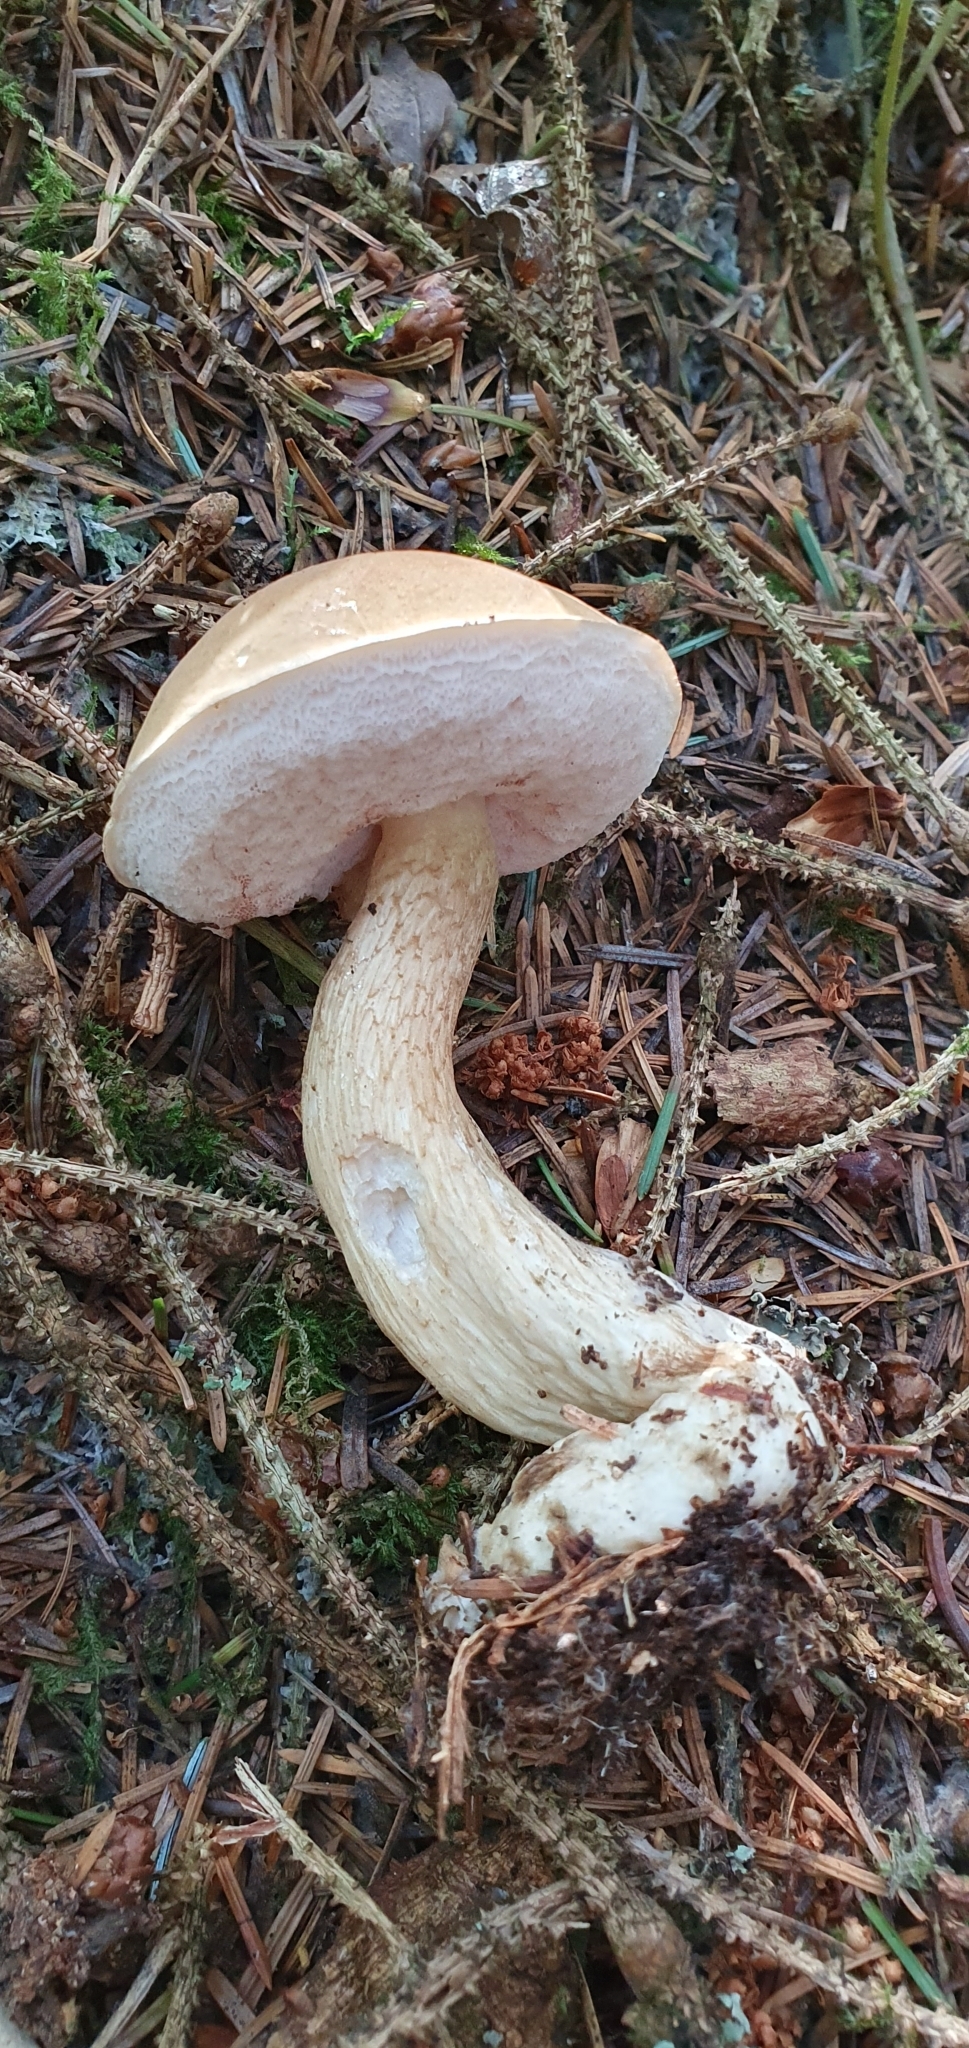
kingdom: Fungi
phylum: Basidiomycota
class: Agaricomycetes
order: Boletales
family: Boletaceae
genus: Tylopilus
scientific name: Tylopilus felleus
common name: Bitter bolete
